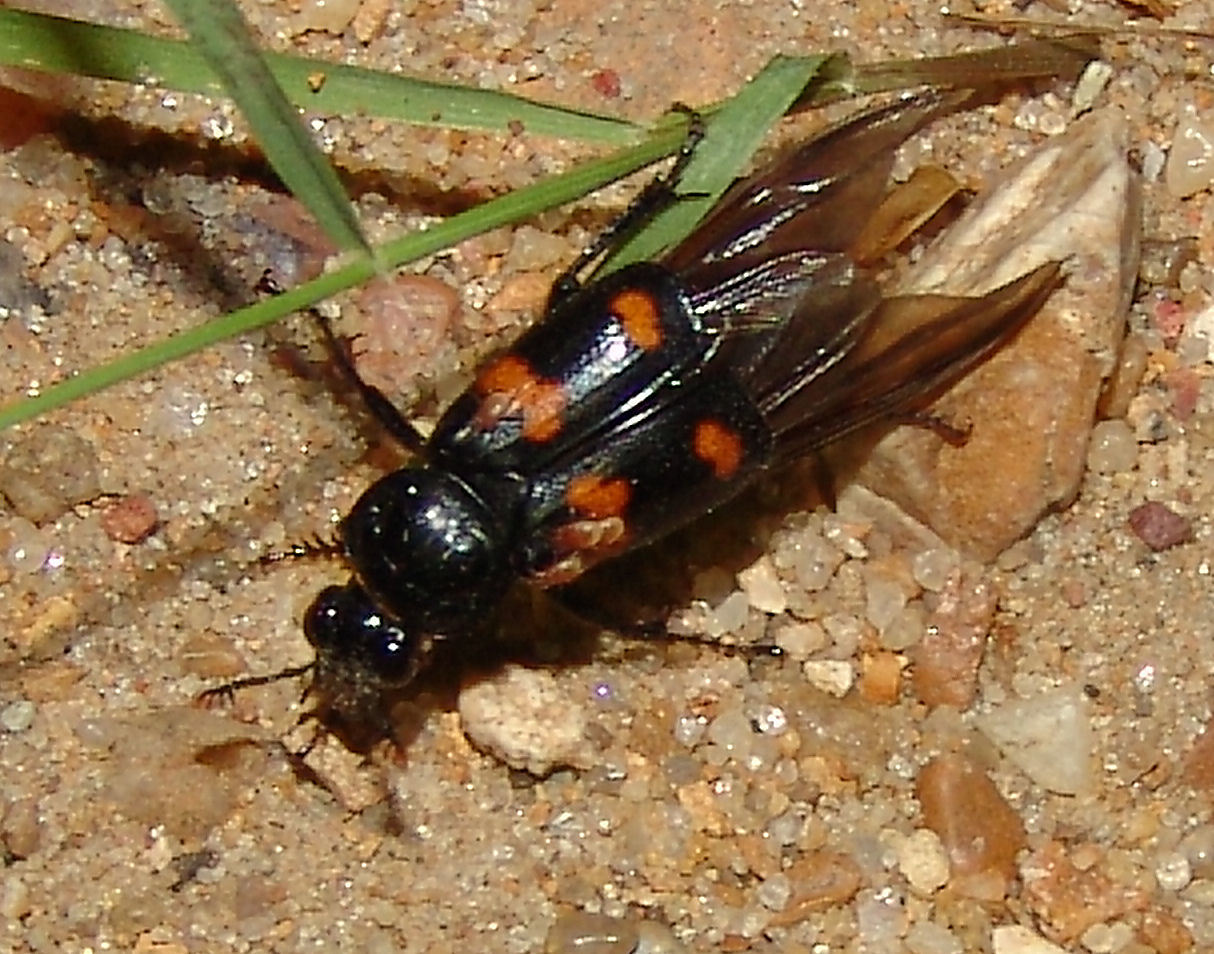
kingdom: Animalia
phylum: Arthropoda
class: Insecta
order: Coleoptera
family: Staphylinidae
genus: Nicrophorus
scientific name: Nicrophorus orbicollis
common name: Roundneck sexton beetle
